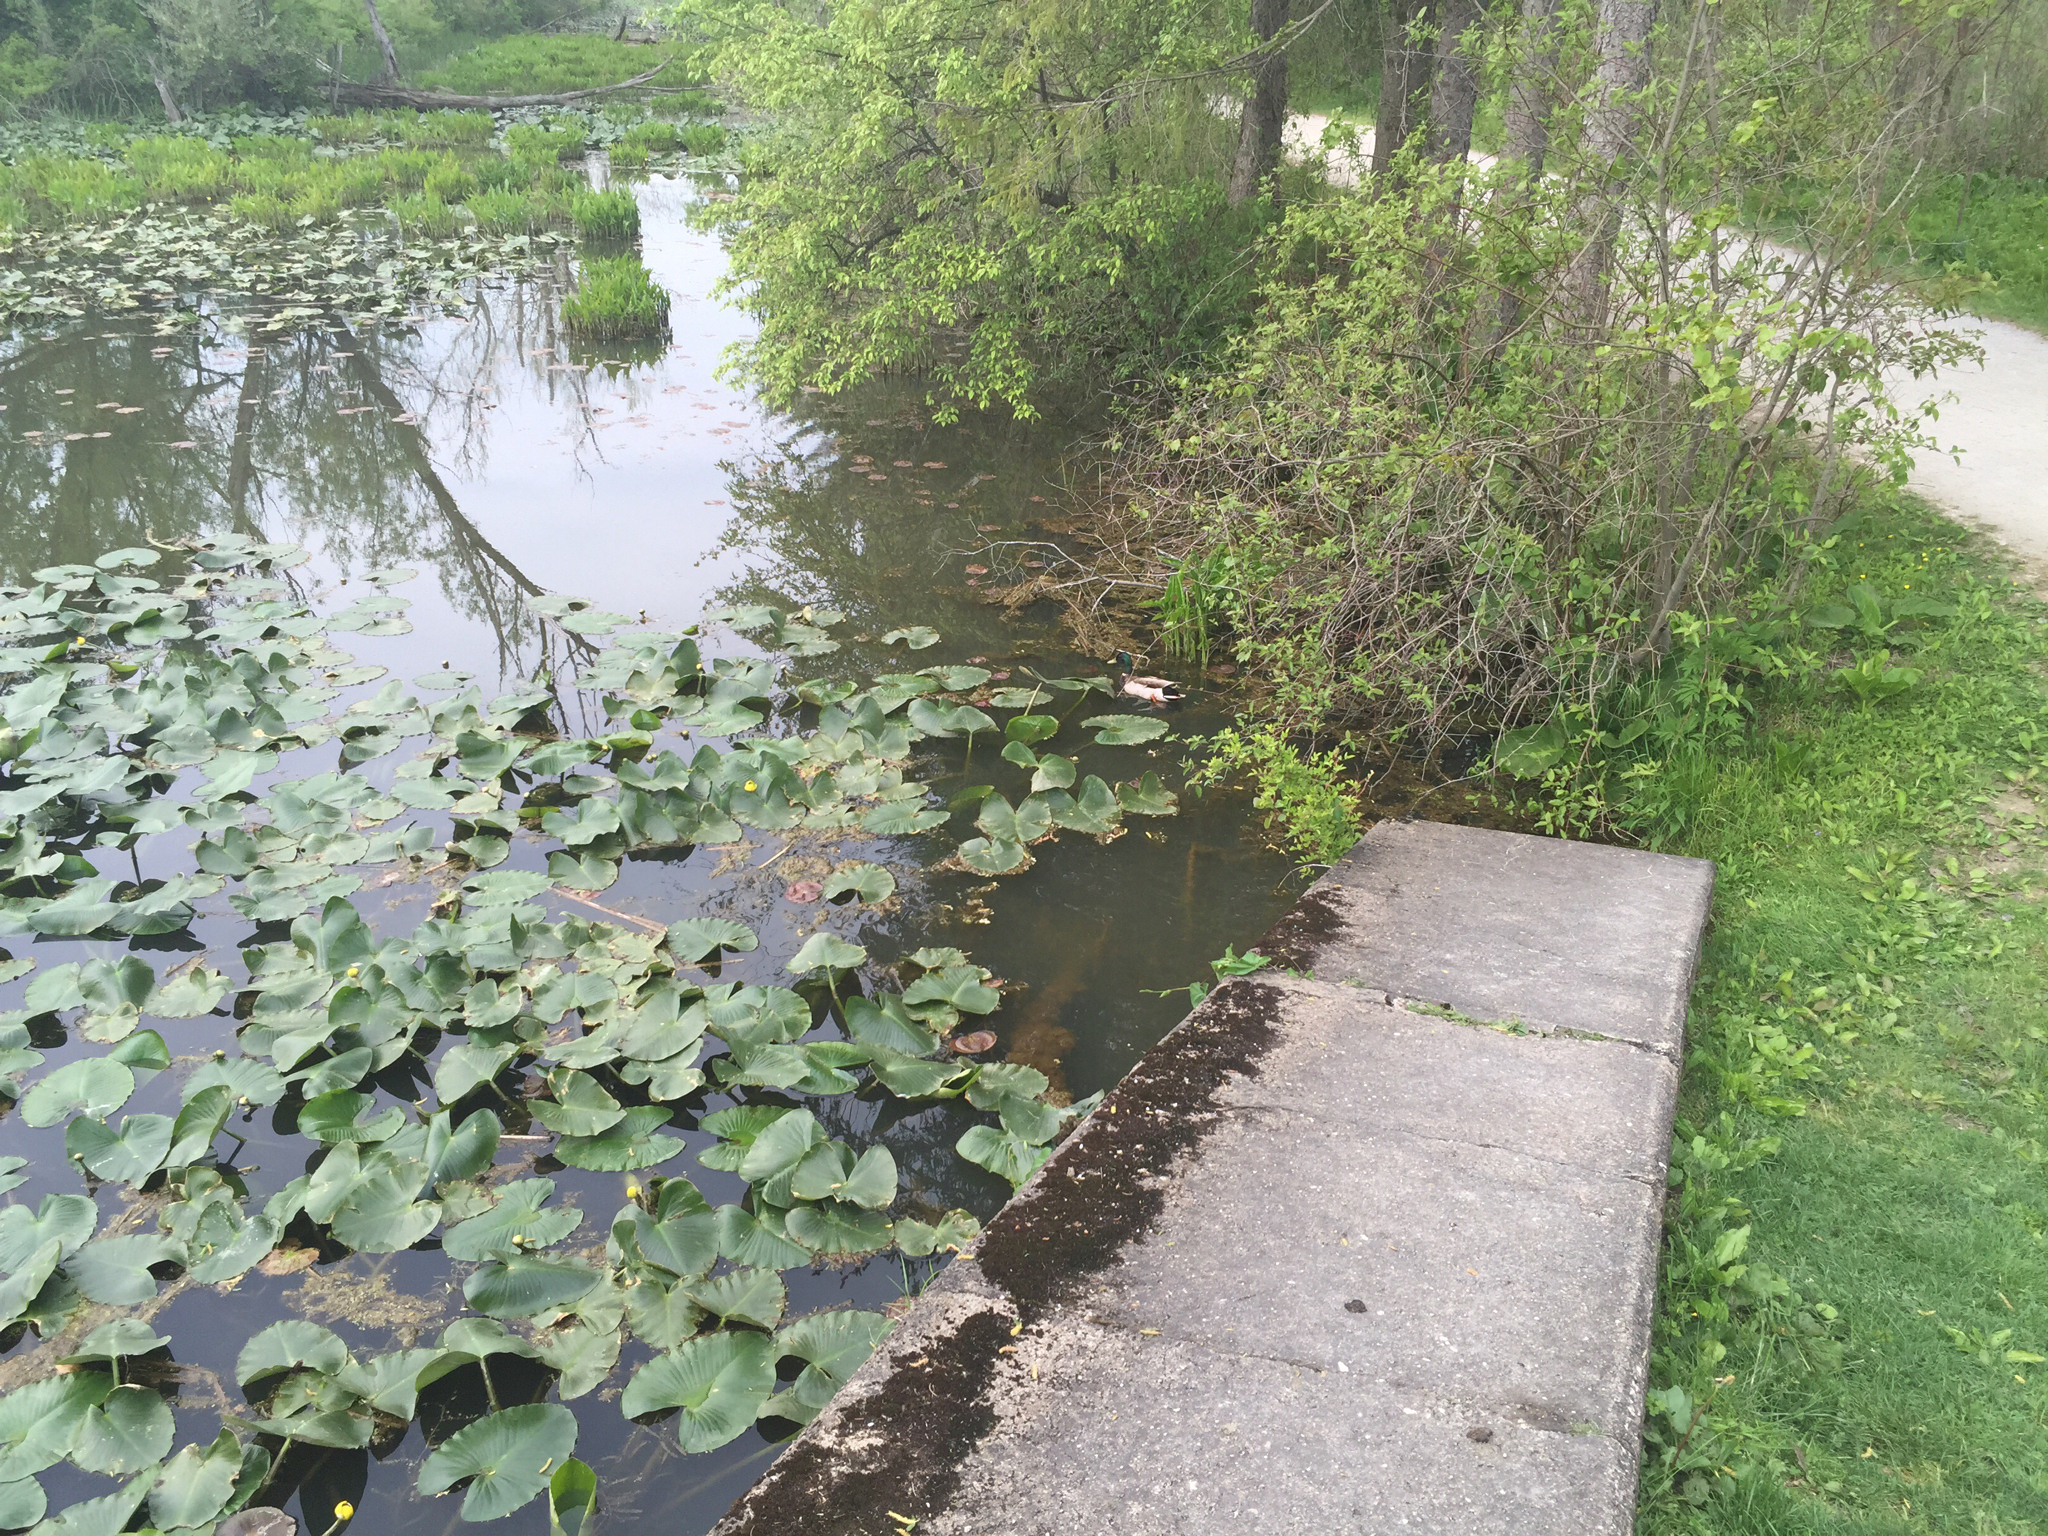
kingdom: Animalia
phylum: Chordata
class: Aves
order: Anseriformes
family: Anatidae
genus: Anas
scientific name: Anas platyrhynchos
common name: Mallard
